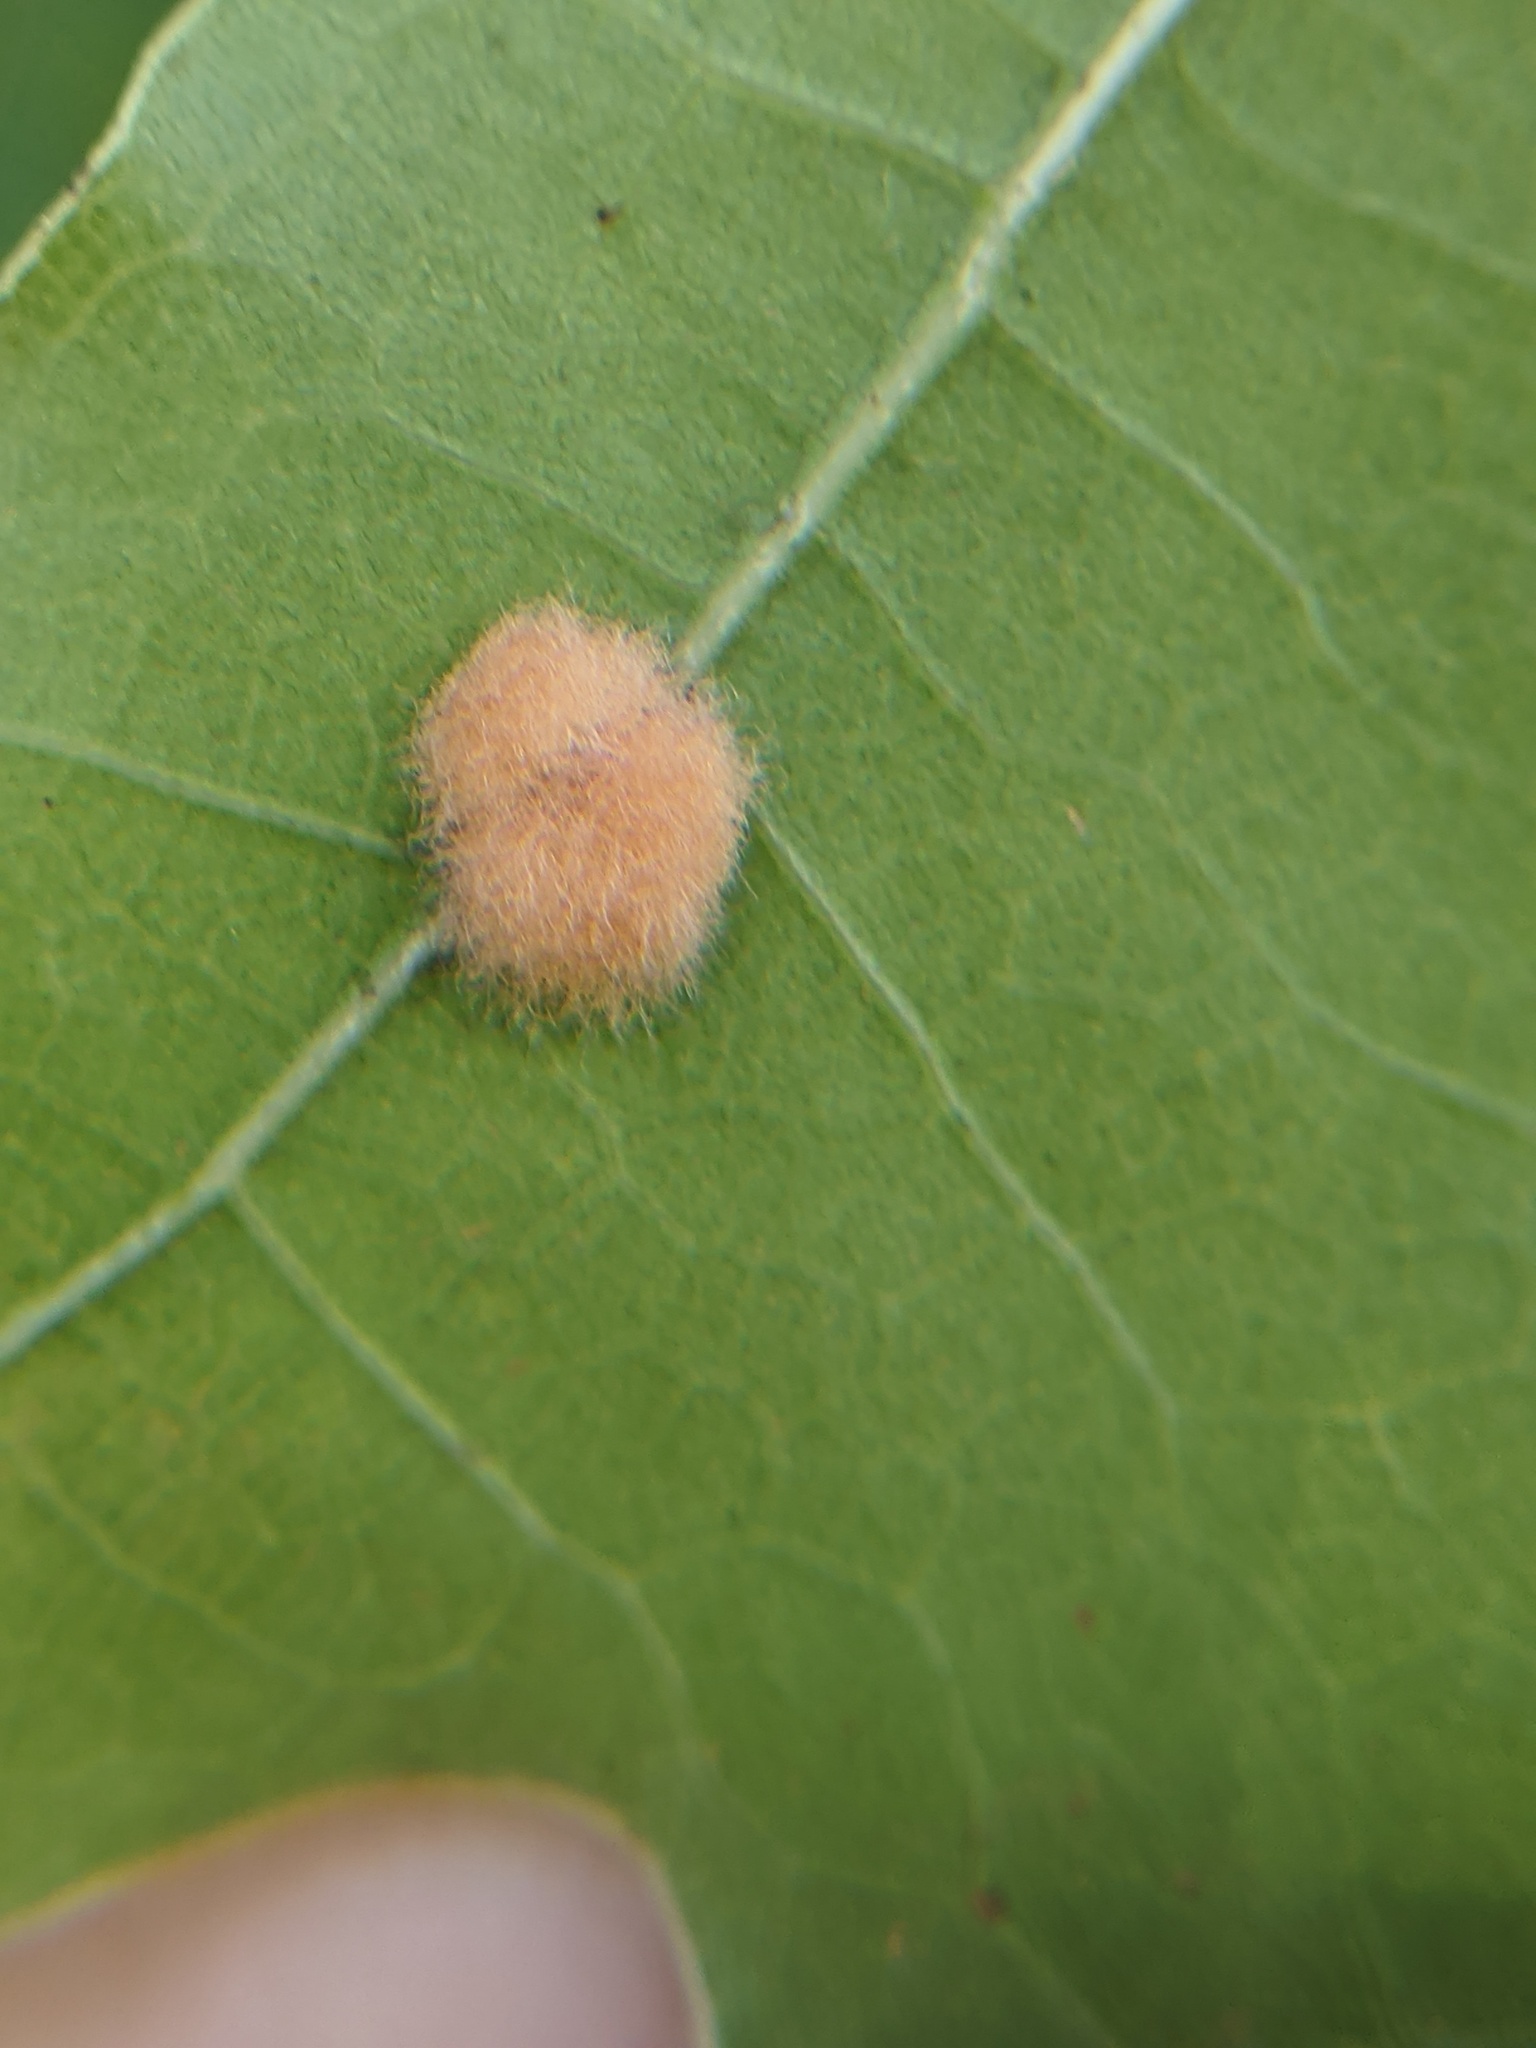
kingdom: Animalia
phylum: Arthropoda
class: Insecta
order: Hymenoptera
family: Cynipidae
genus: Callirhytis
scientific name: Callirhytis
